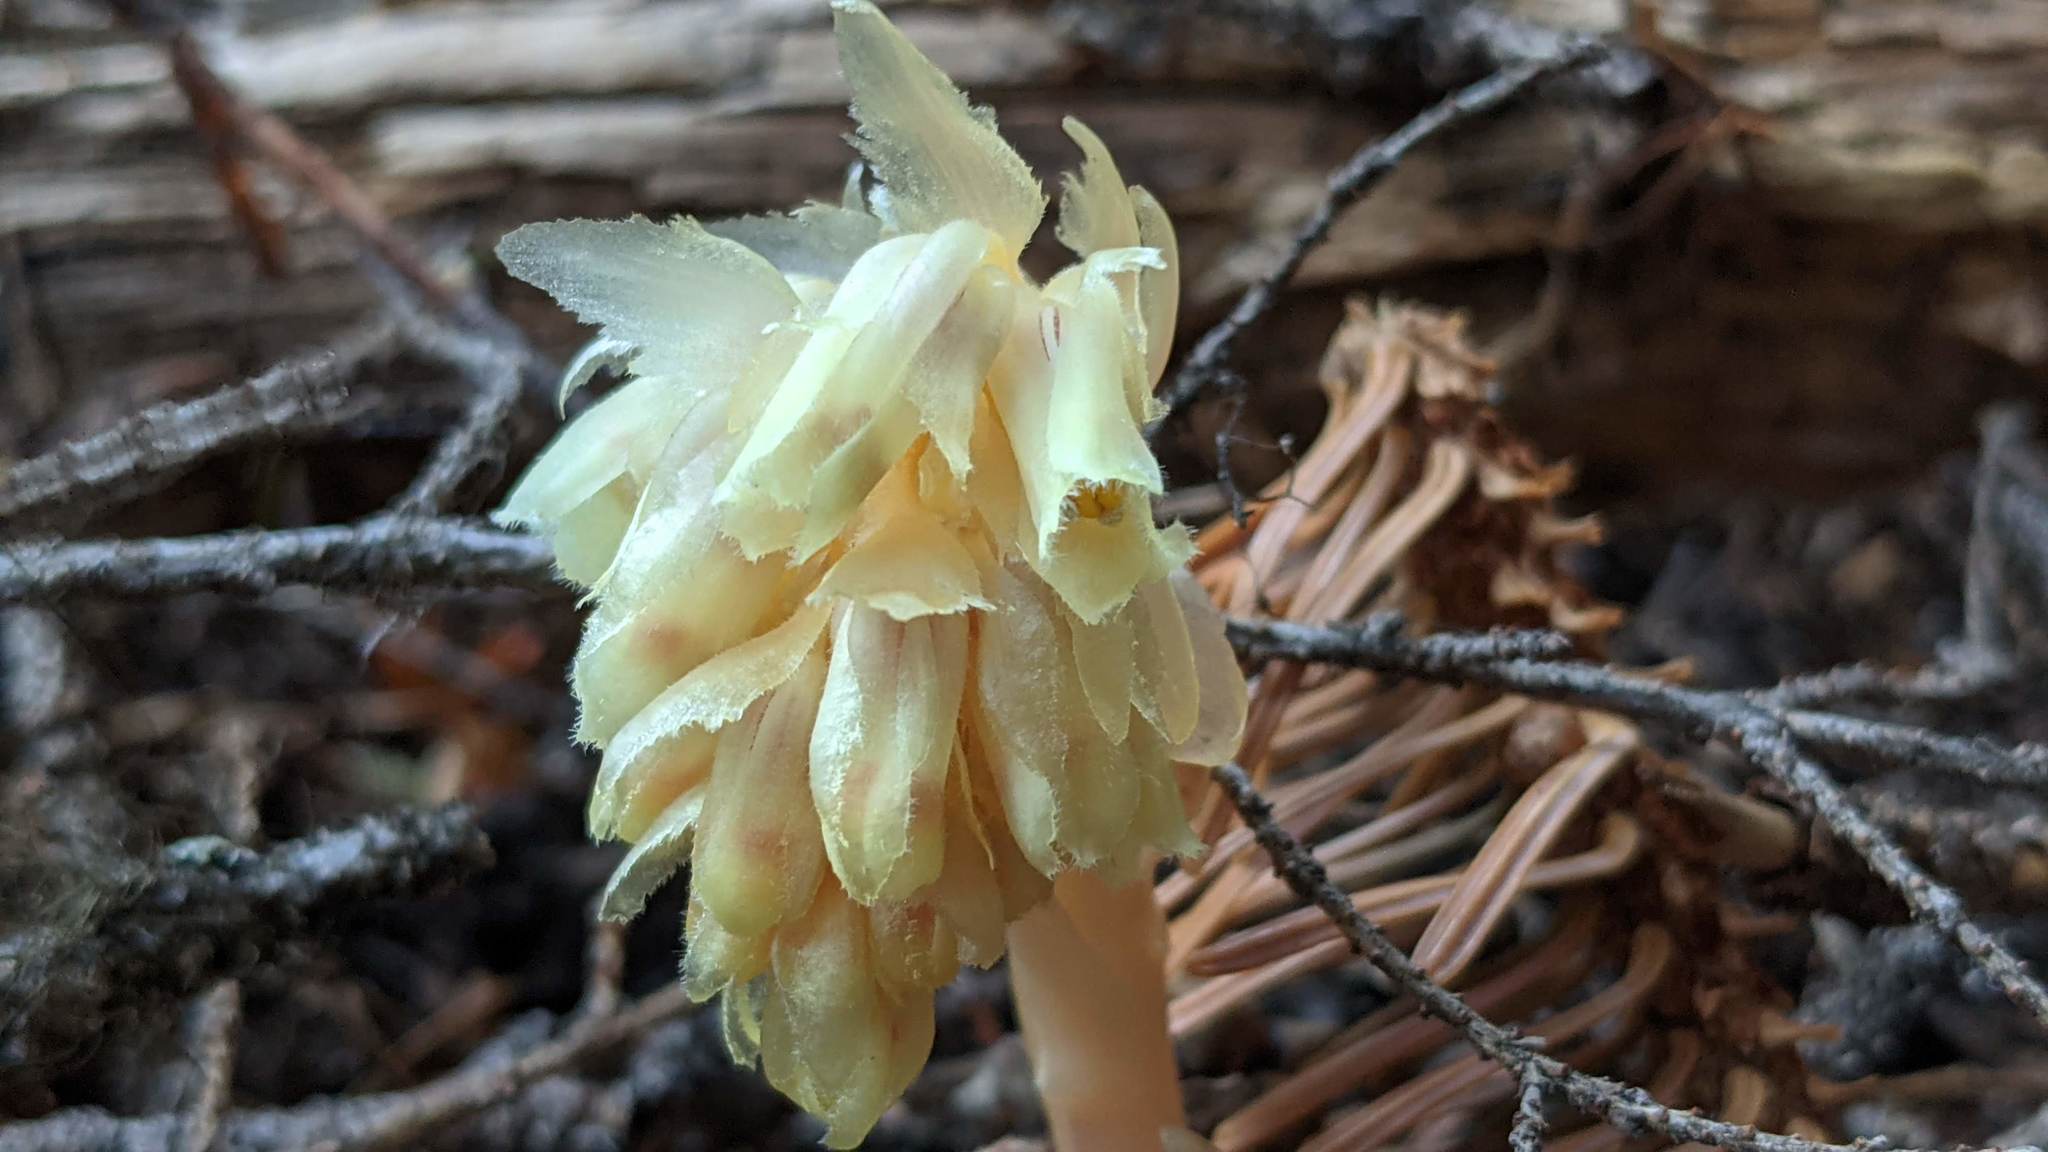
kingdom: Plantae
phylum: Tracheophyta
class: Magnoliopsida
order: Ericales
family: Ericaceae
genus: Hypopitys
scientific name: Hypopitys monotropa
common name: Yellow bird's-nest
